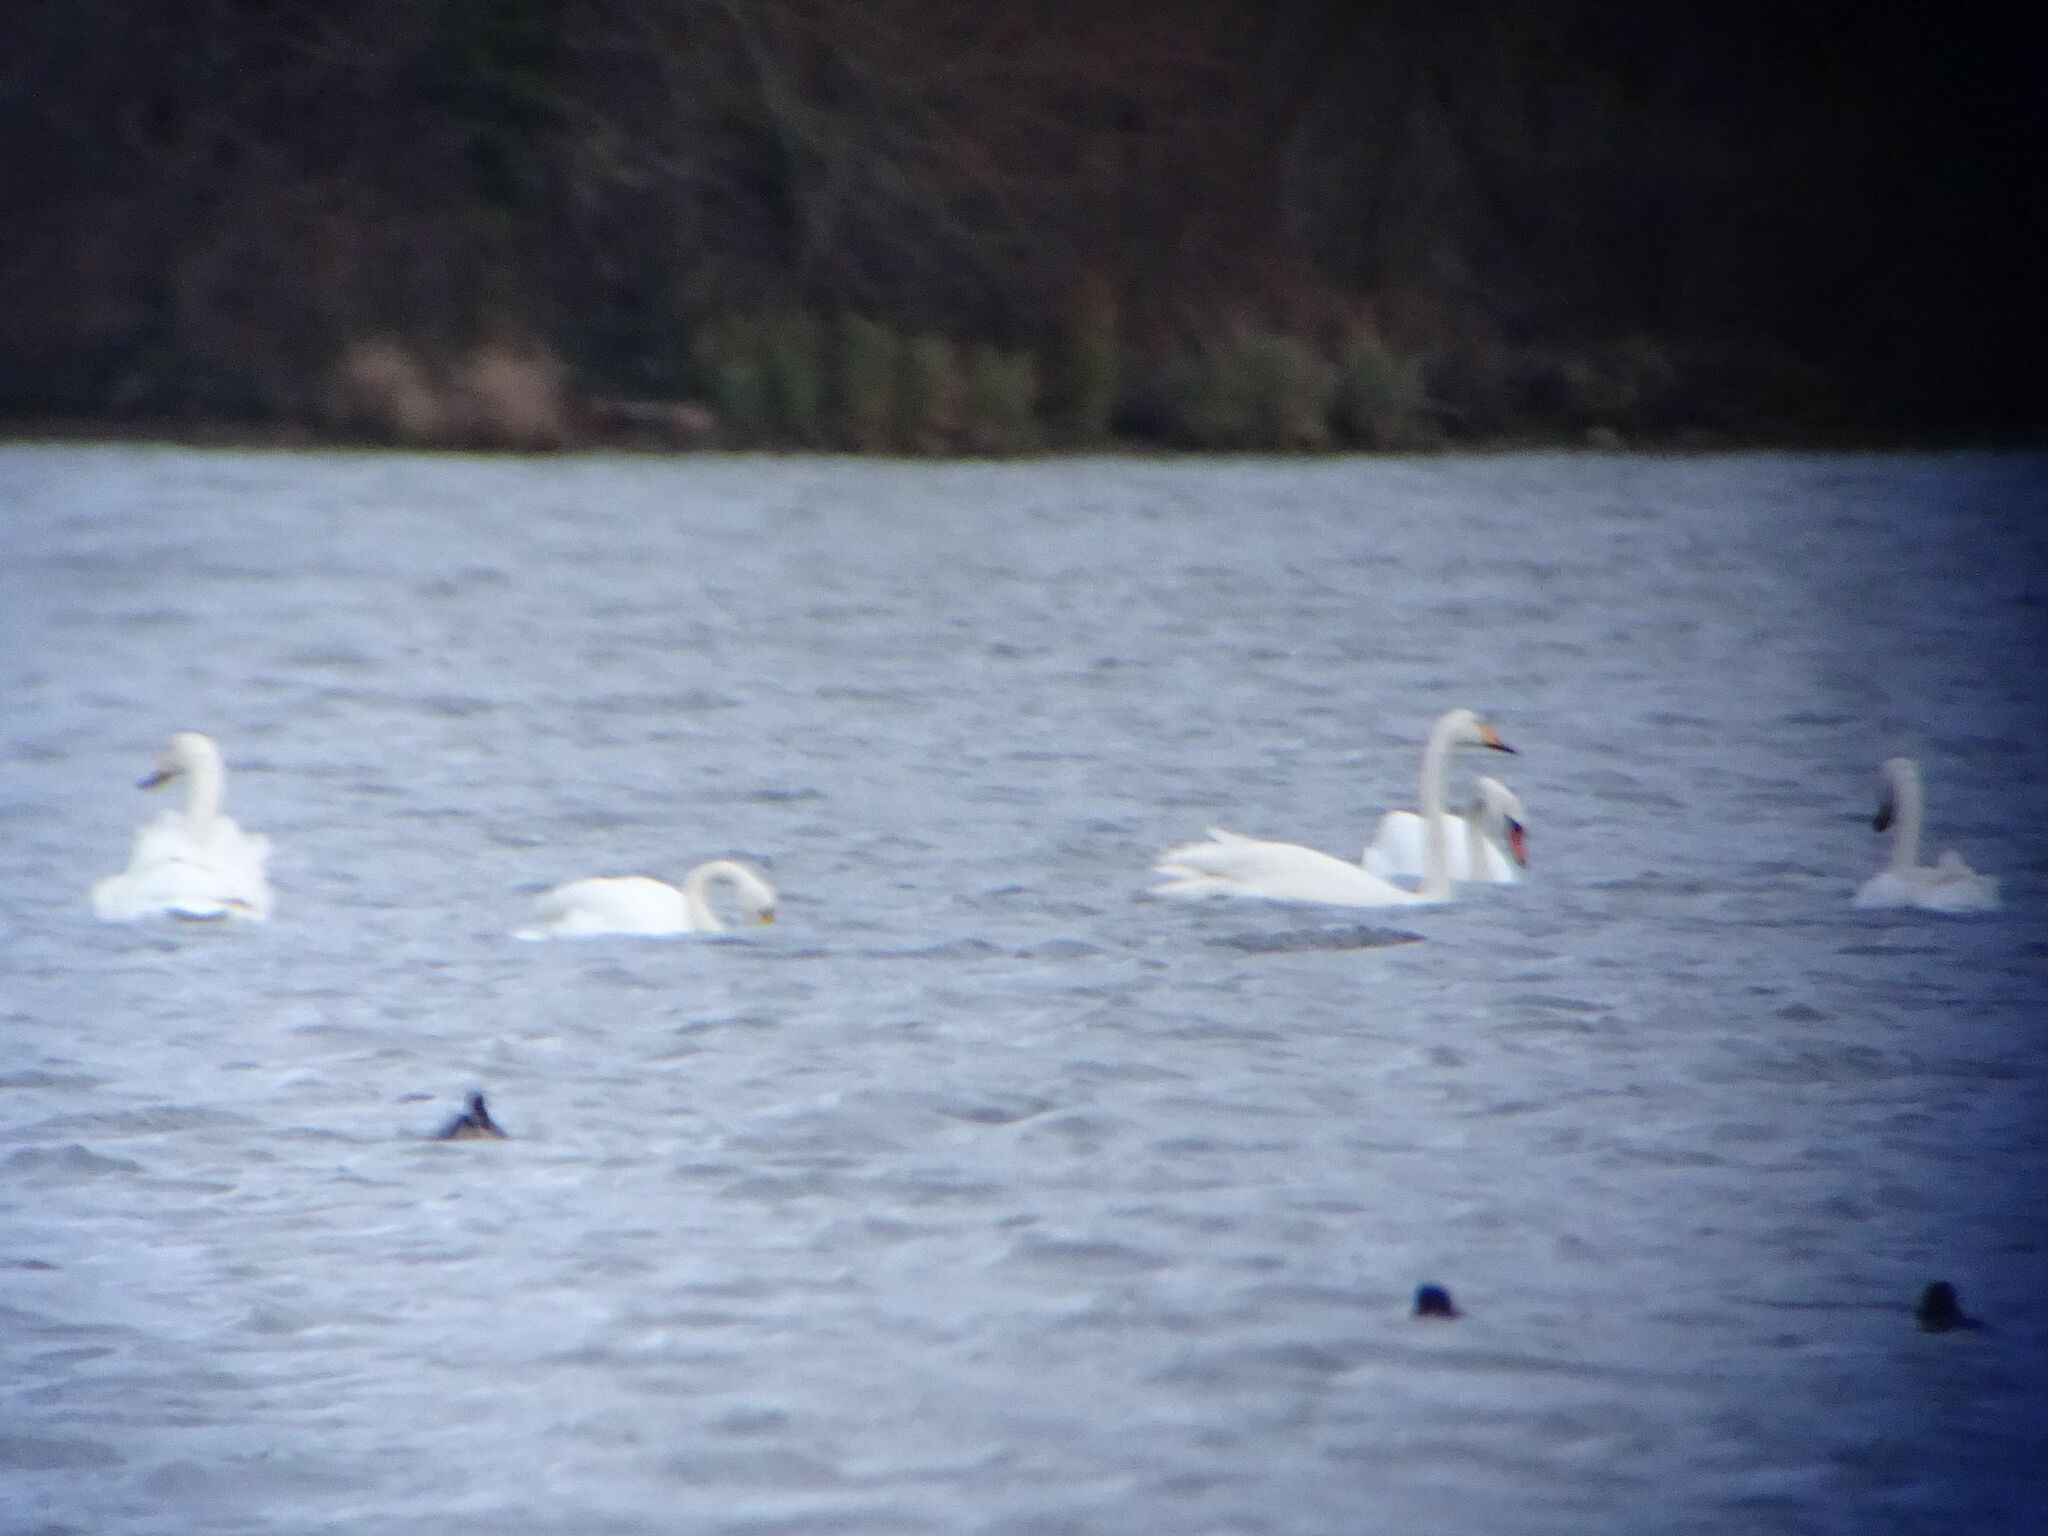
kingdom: Animalia
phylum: Chordata
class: Aves
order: Anseriformes
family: Anatidae
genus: Cygnus
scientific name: Cygnus cygnus
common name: Whooper swan
